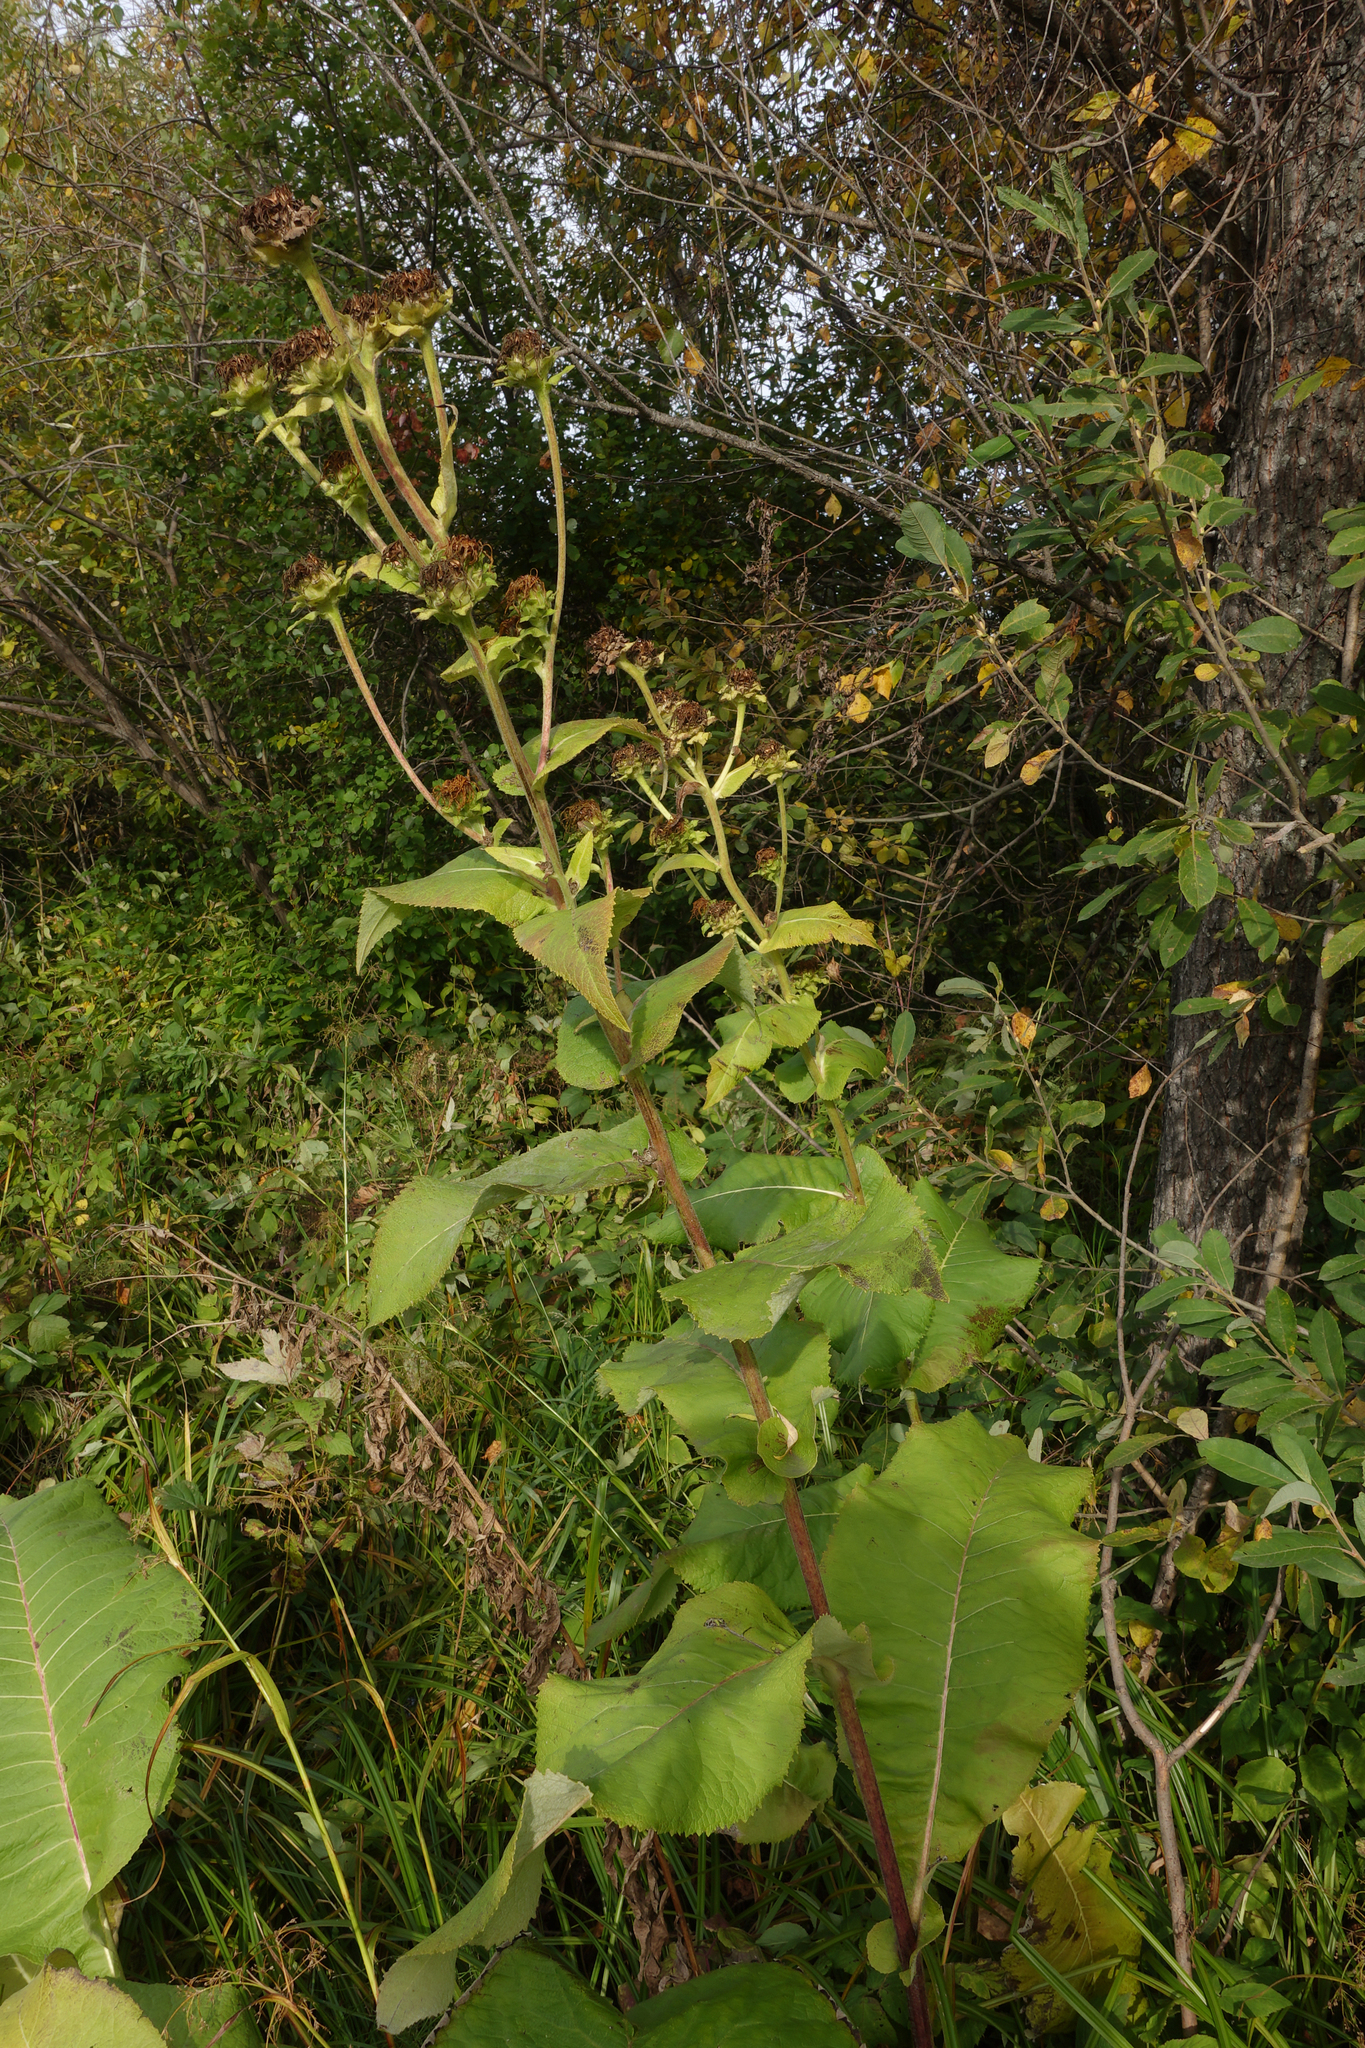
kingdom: Plantae
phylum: Tracheophyta
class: Magnoliopsida
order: Asterales
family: Asteraceae
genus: Inula
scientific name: Inula helenium
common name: Elecampane
